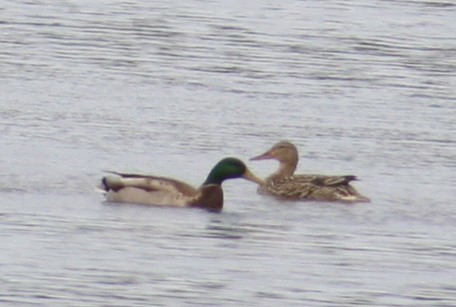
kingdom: Animalia
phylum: Chordata
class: Aves
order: Anseriformes
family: Anatidae
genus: Anas
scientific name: Anas platyrhynchos
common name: Mallard
